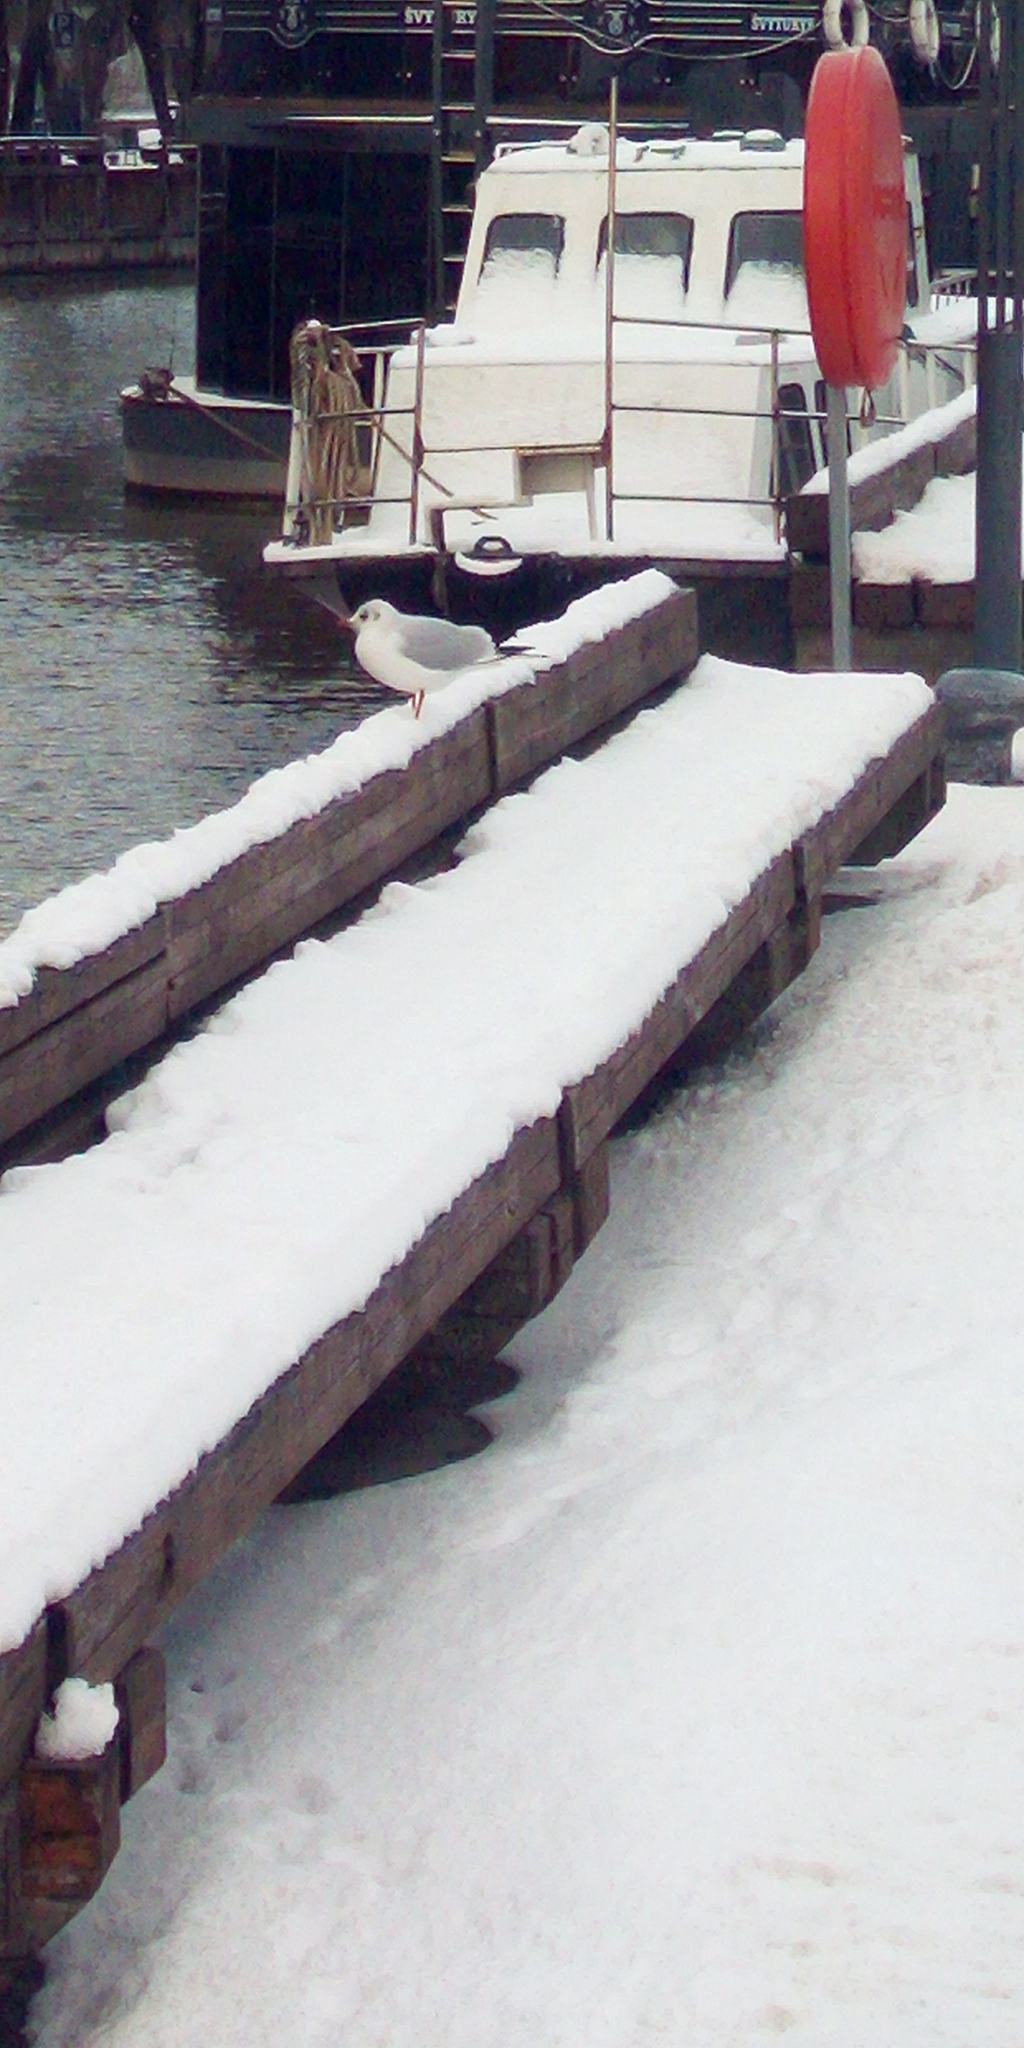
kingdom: Animalia
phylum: Chordata
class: Aves
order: Charadriiformes
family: Laridae
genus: Chroicocephalus
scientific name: Chroicocephalus ridibundus
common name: Black-headed gull
